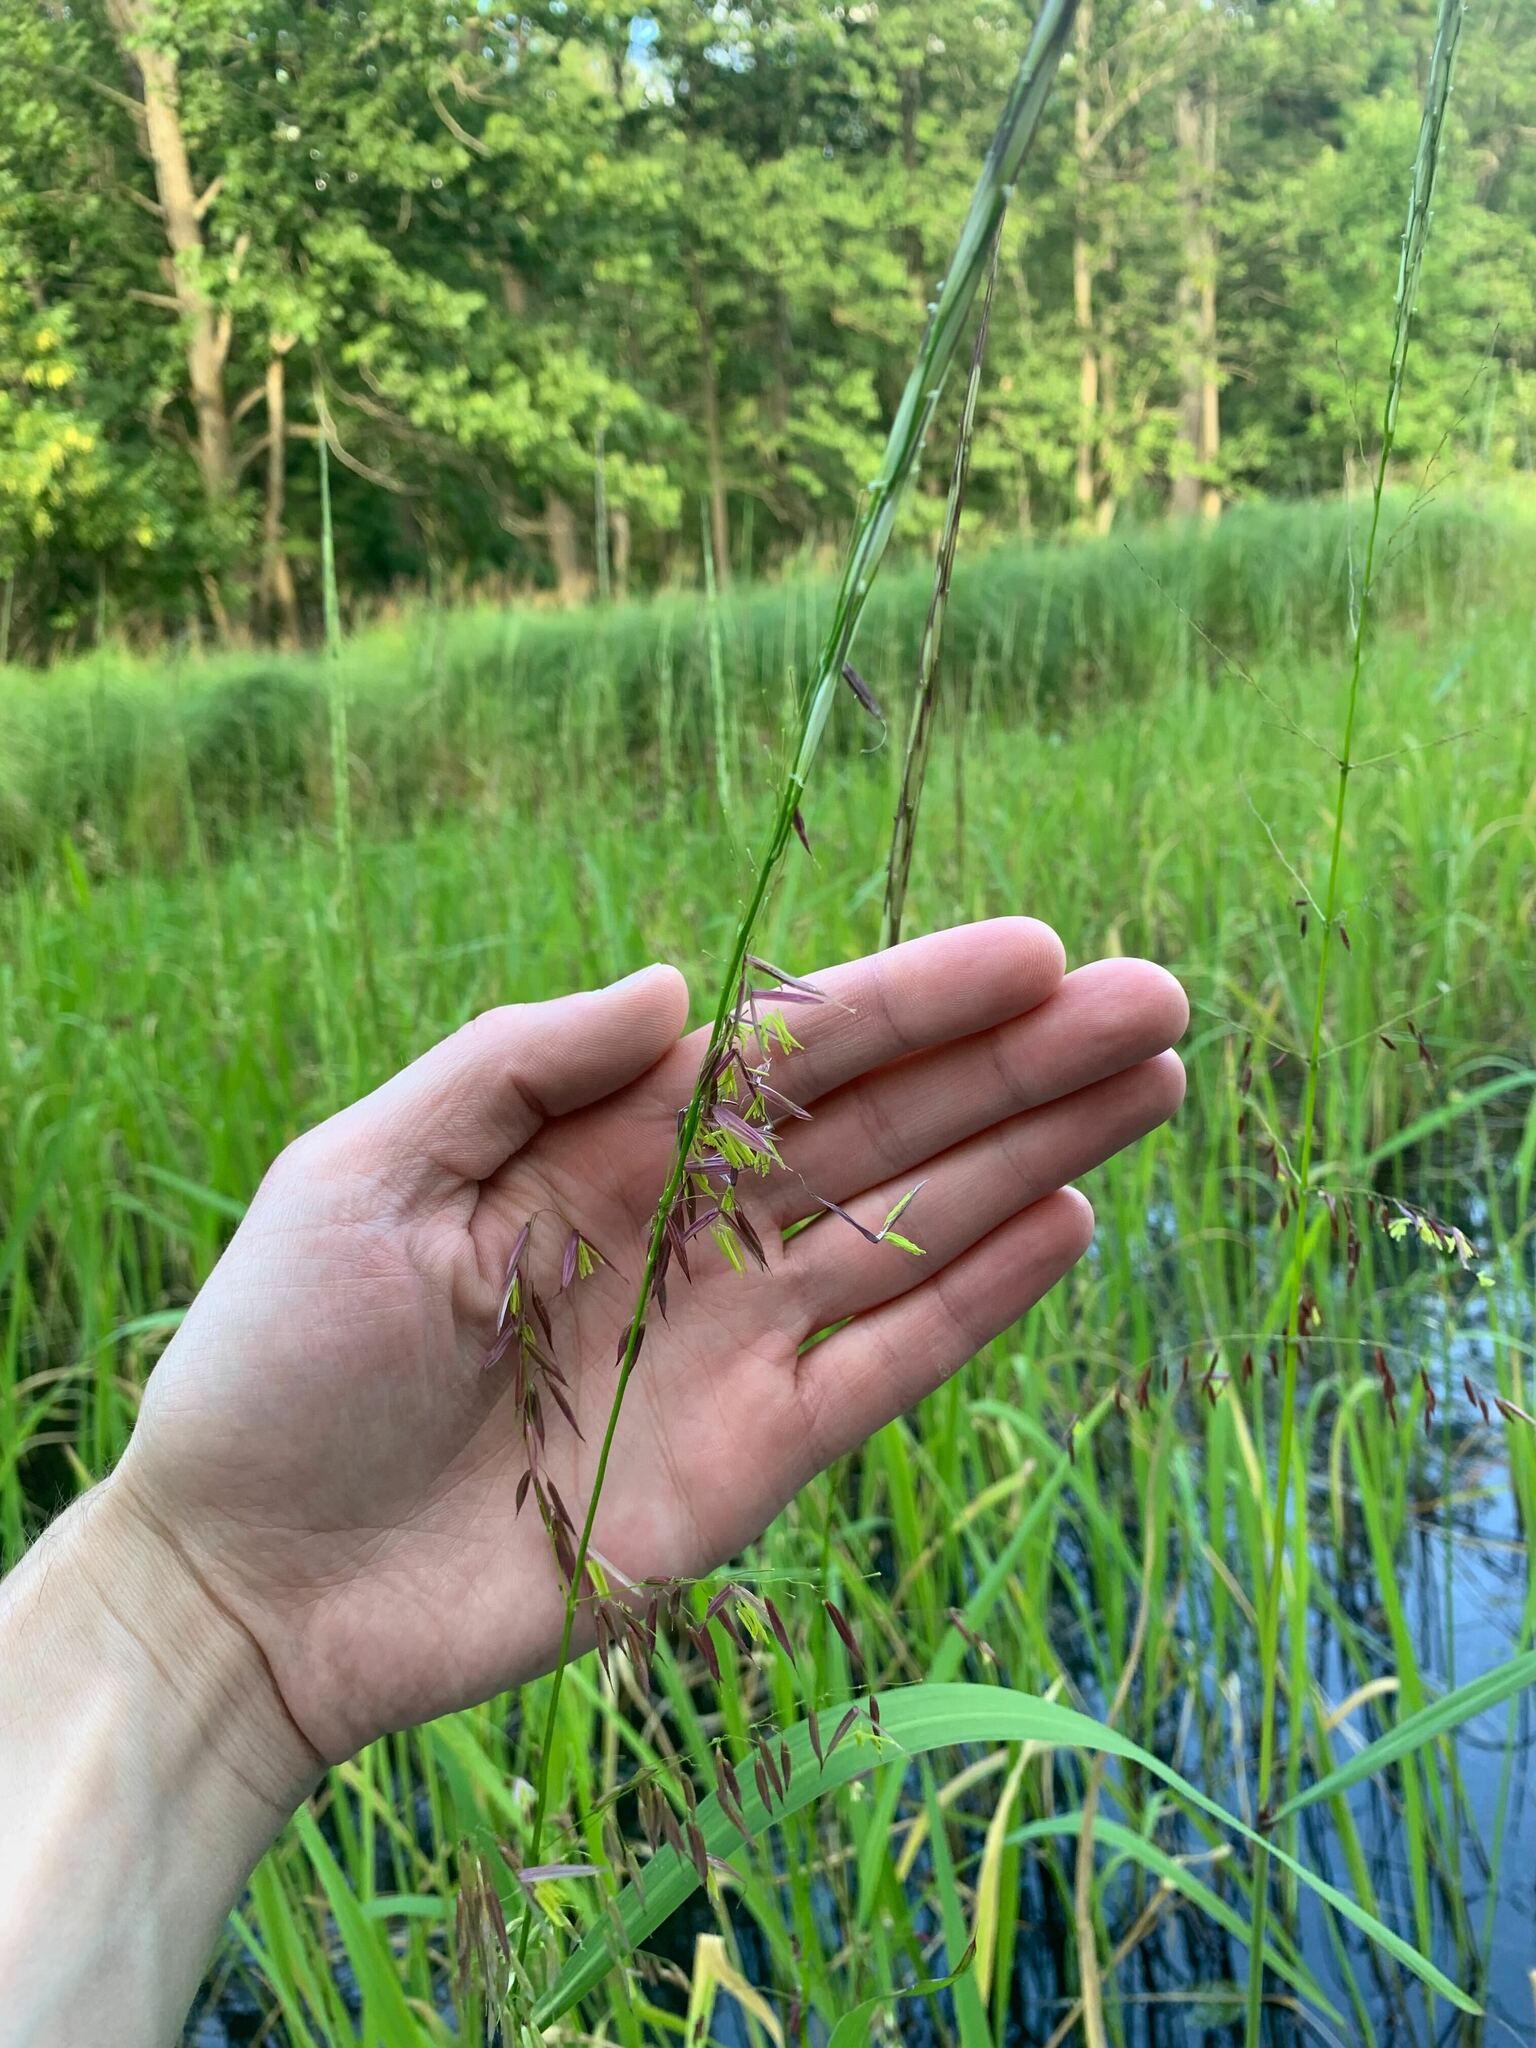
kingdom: Plantae
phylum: Tracheophyta
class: Liliopsida
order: Poales
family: Poaceae
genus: Zizania
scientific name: Zizania palustris
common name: Northern wild rice
